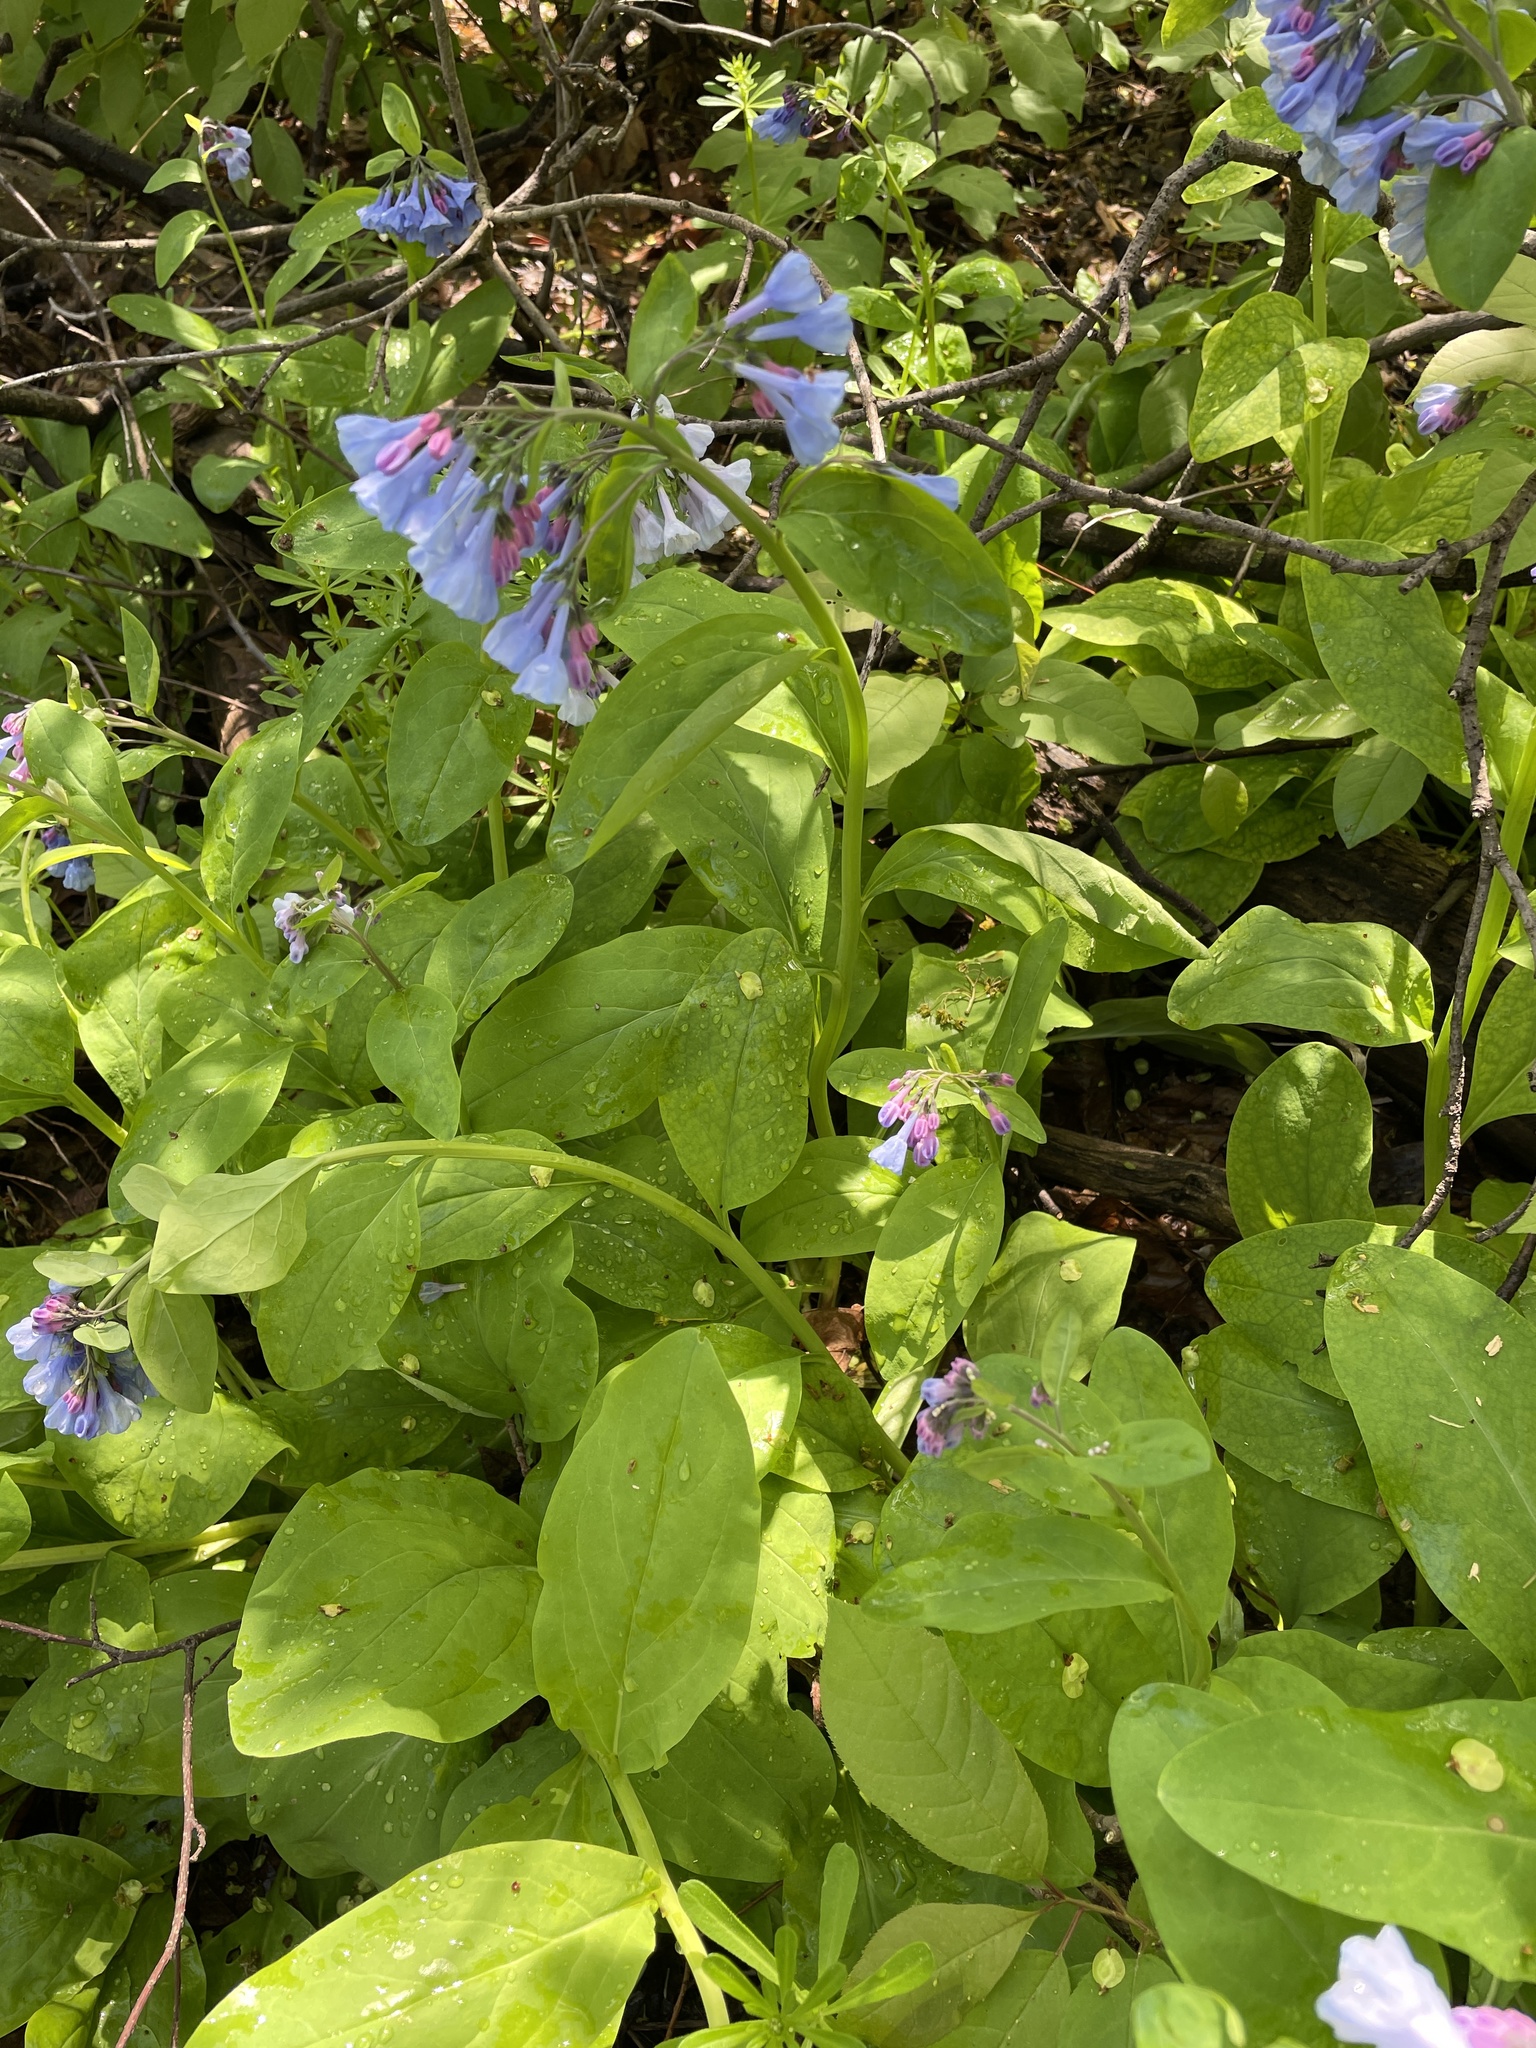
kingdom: Plantae
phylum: Tracheophyta
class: Magnoliopsida
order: Boraginales
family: Boraginaceae
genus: Mertensia
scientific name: Mertensia virginica
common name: Virginia bluebells
